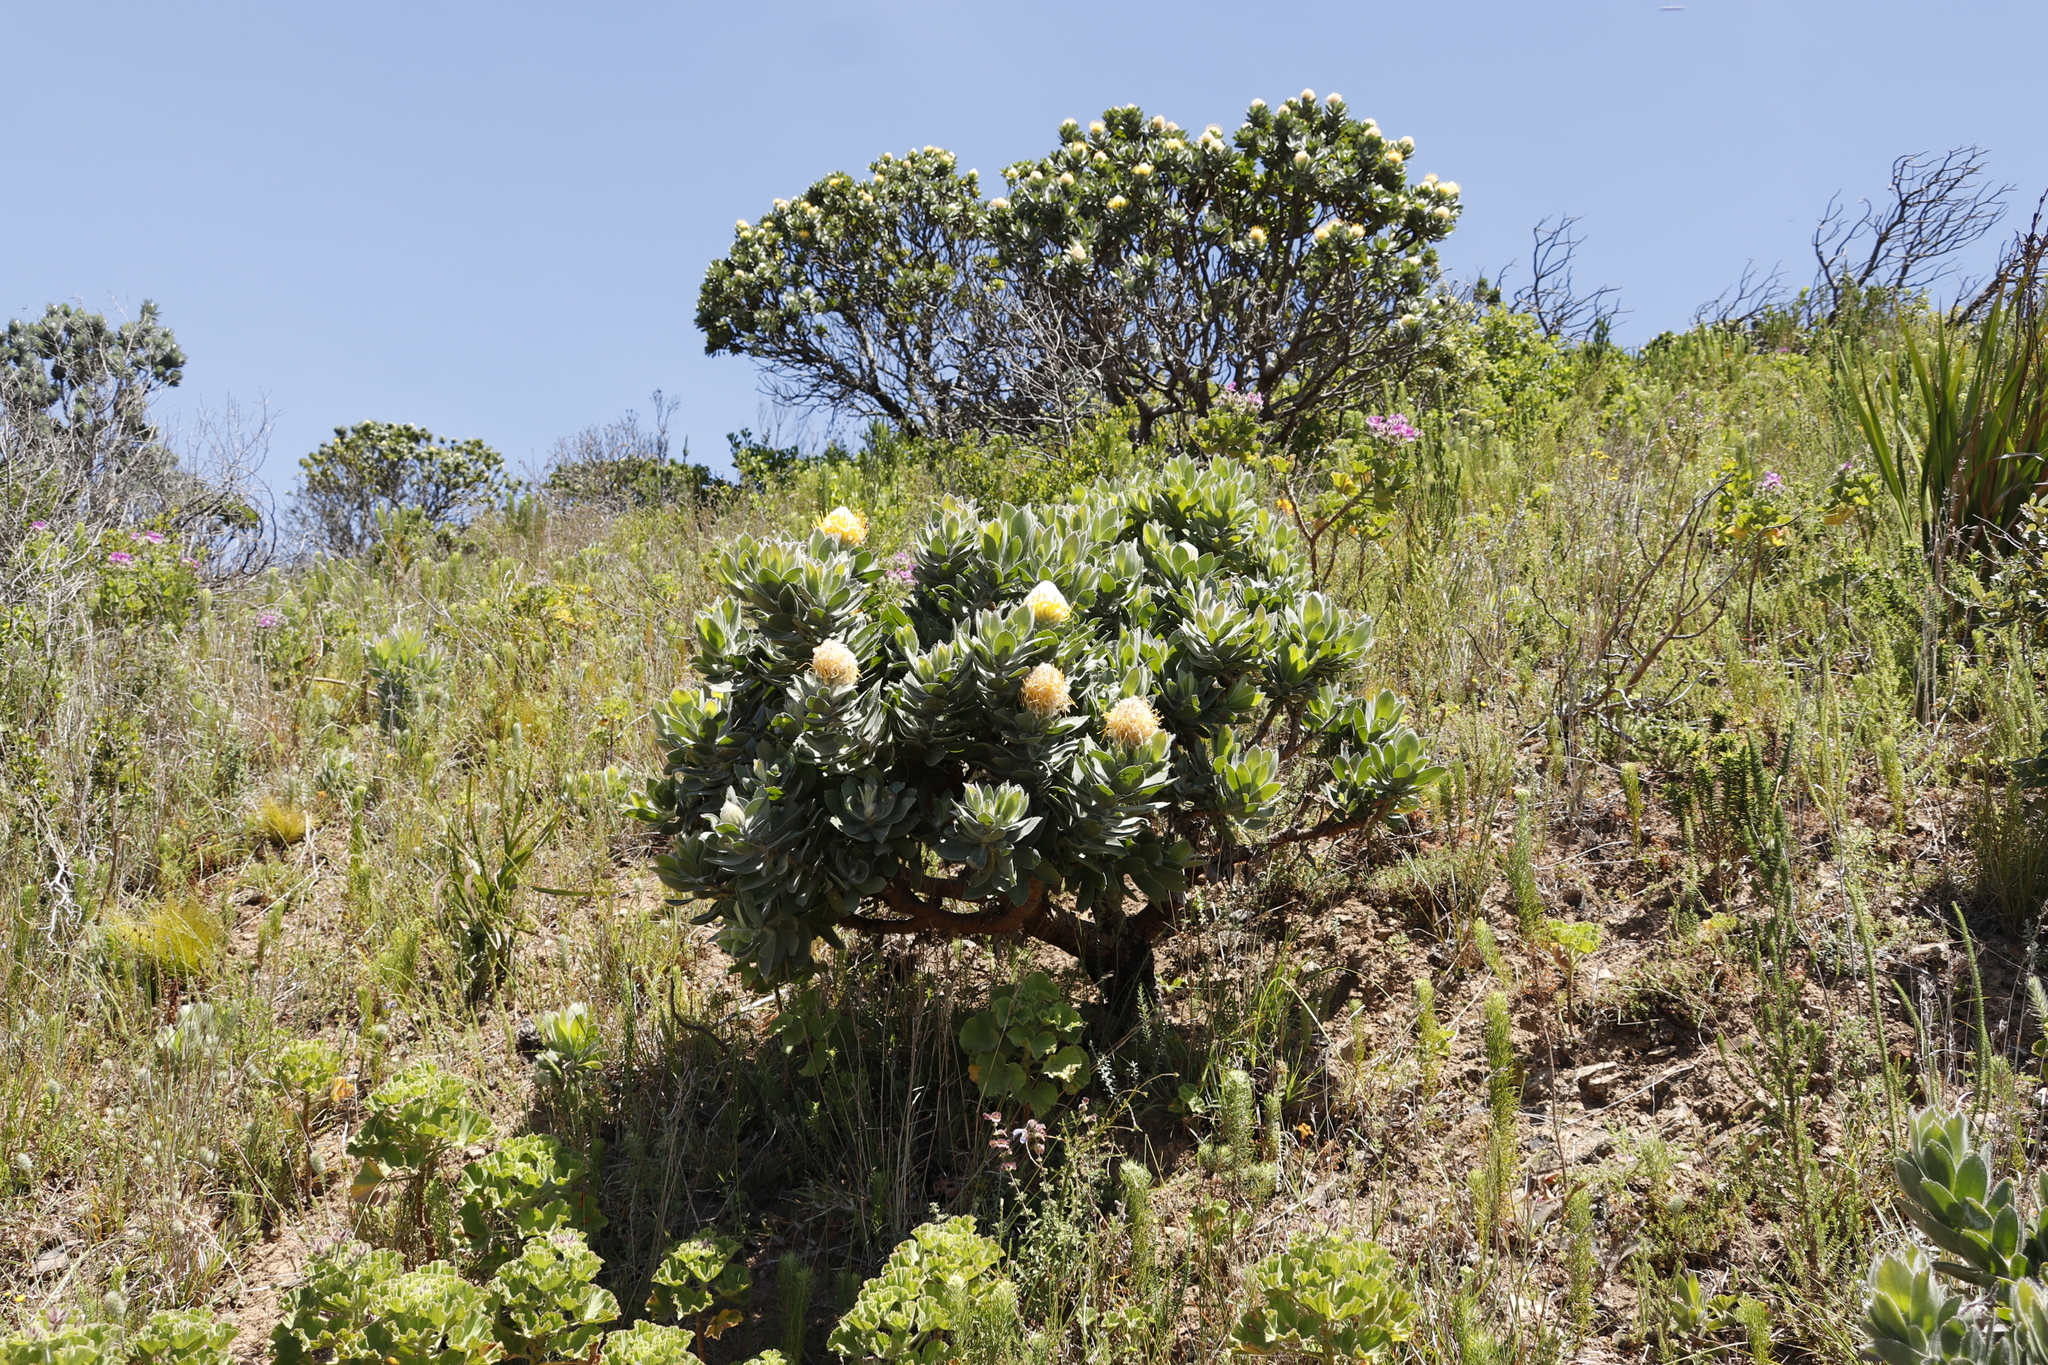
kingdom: Plantae
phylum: Tracheophyta
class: Magnoliopsida
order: Proteales
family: Proteaceae
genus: Leucospermum
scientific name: Leucospermum conocarpodendron
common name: Tree pincushion
